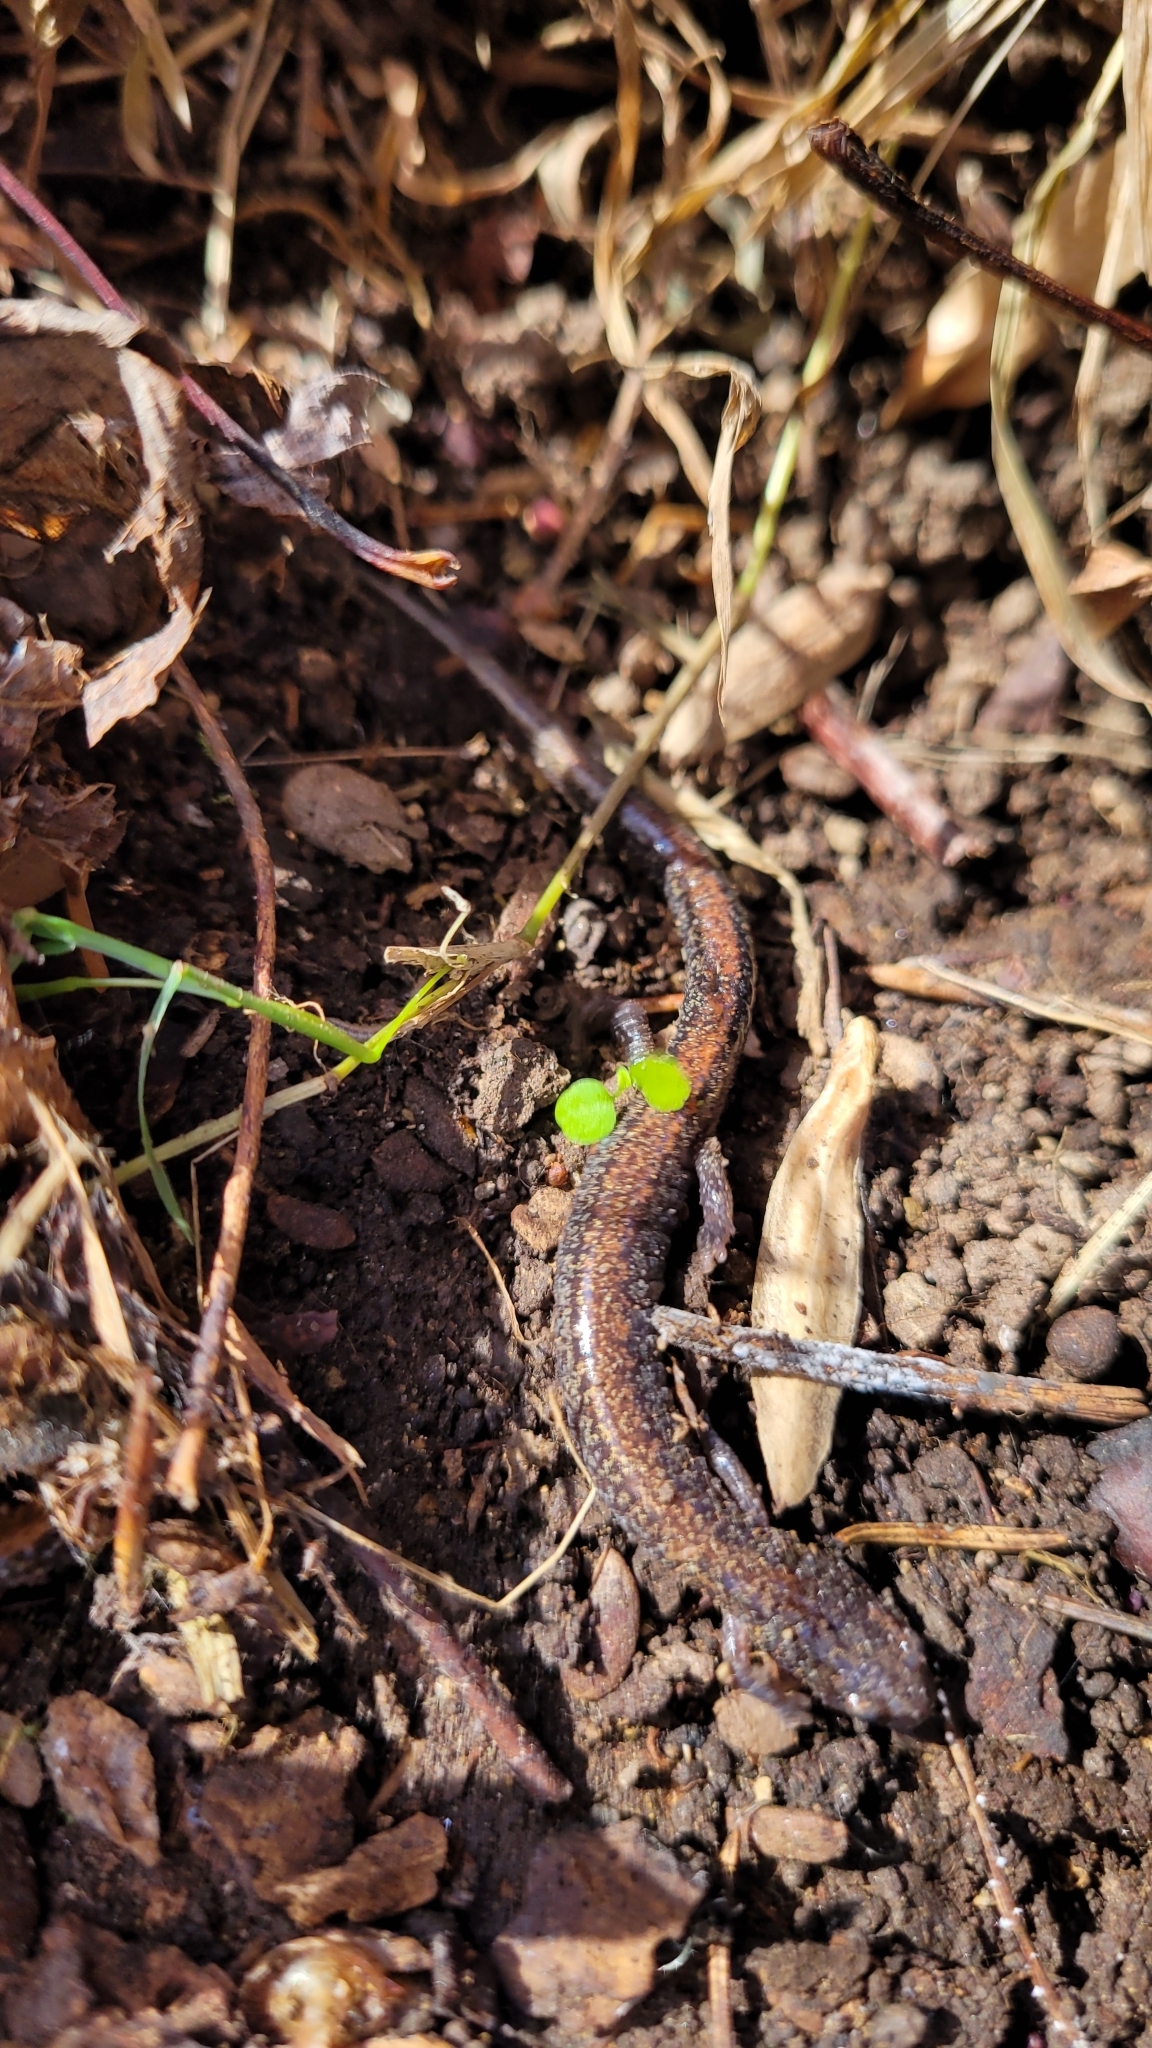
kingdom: Animalia
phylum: Chordata
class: Amphibia
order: Caudata
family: Plethodontidae
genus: Plethodon
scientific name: Plethodon cinereus
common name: Redback salamander
